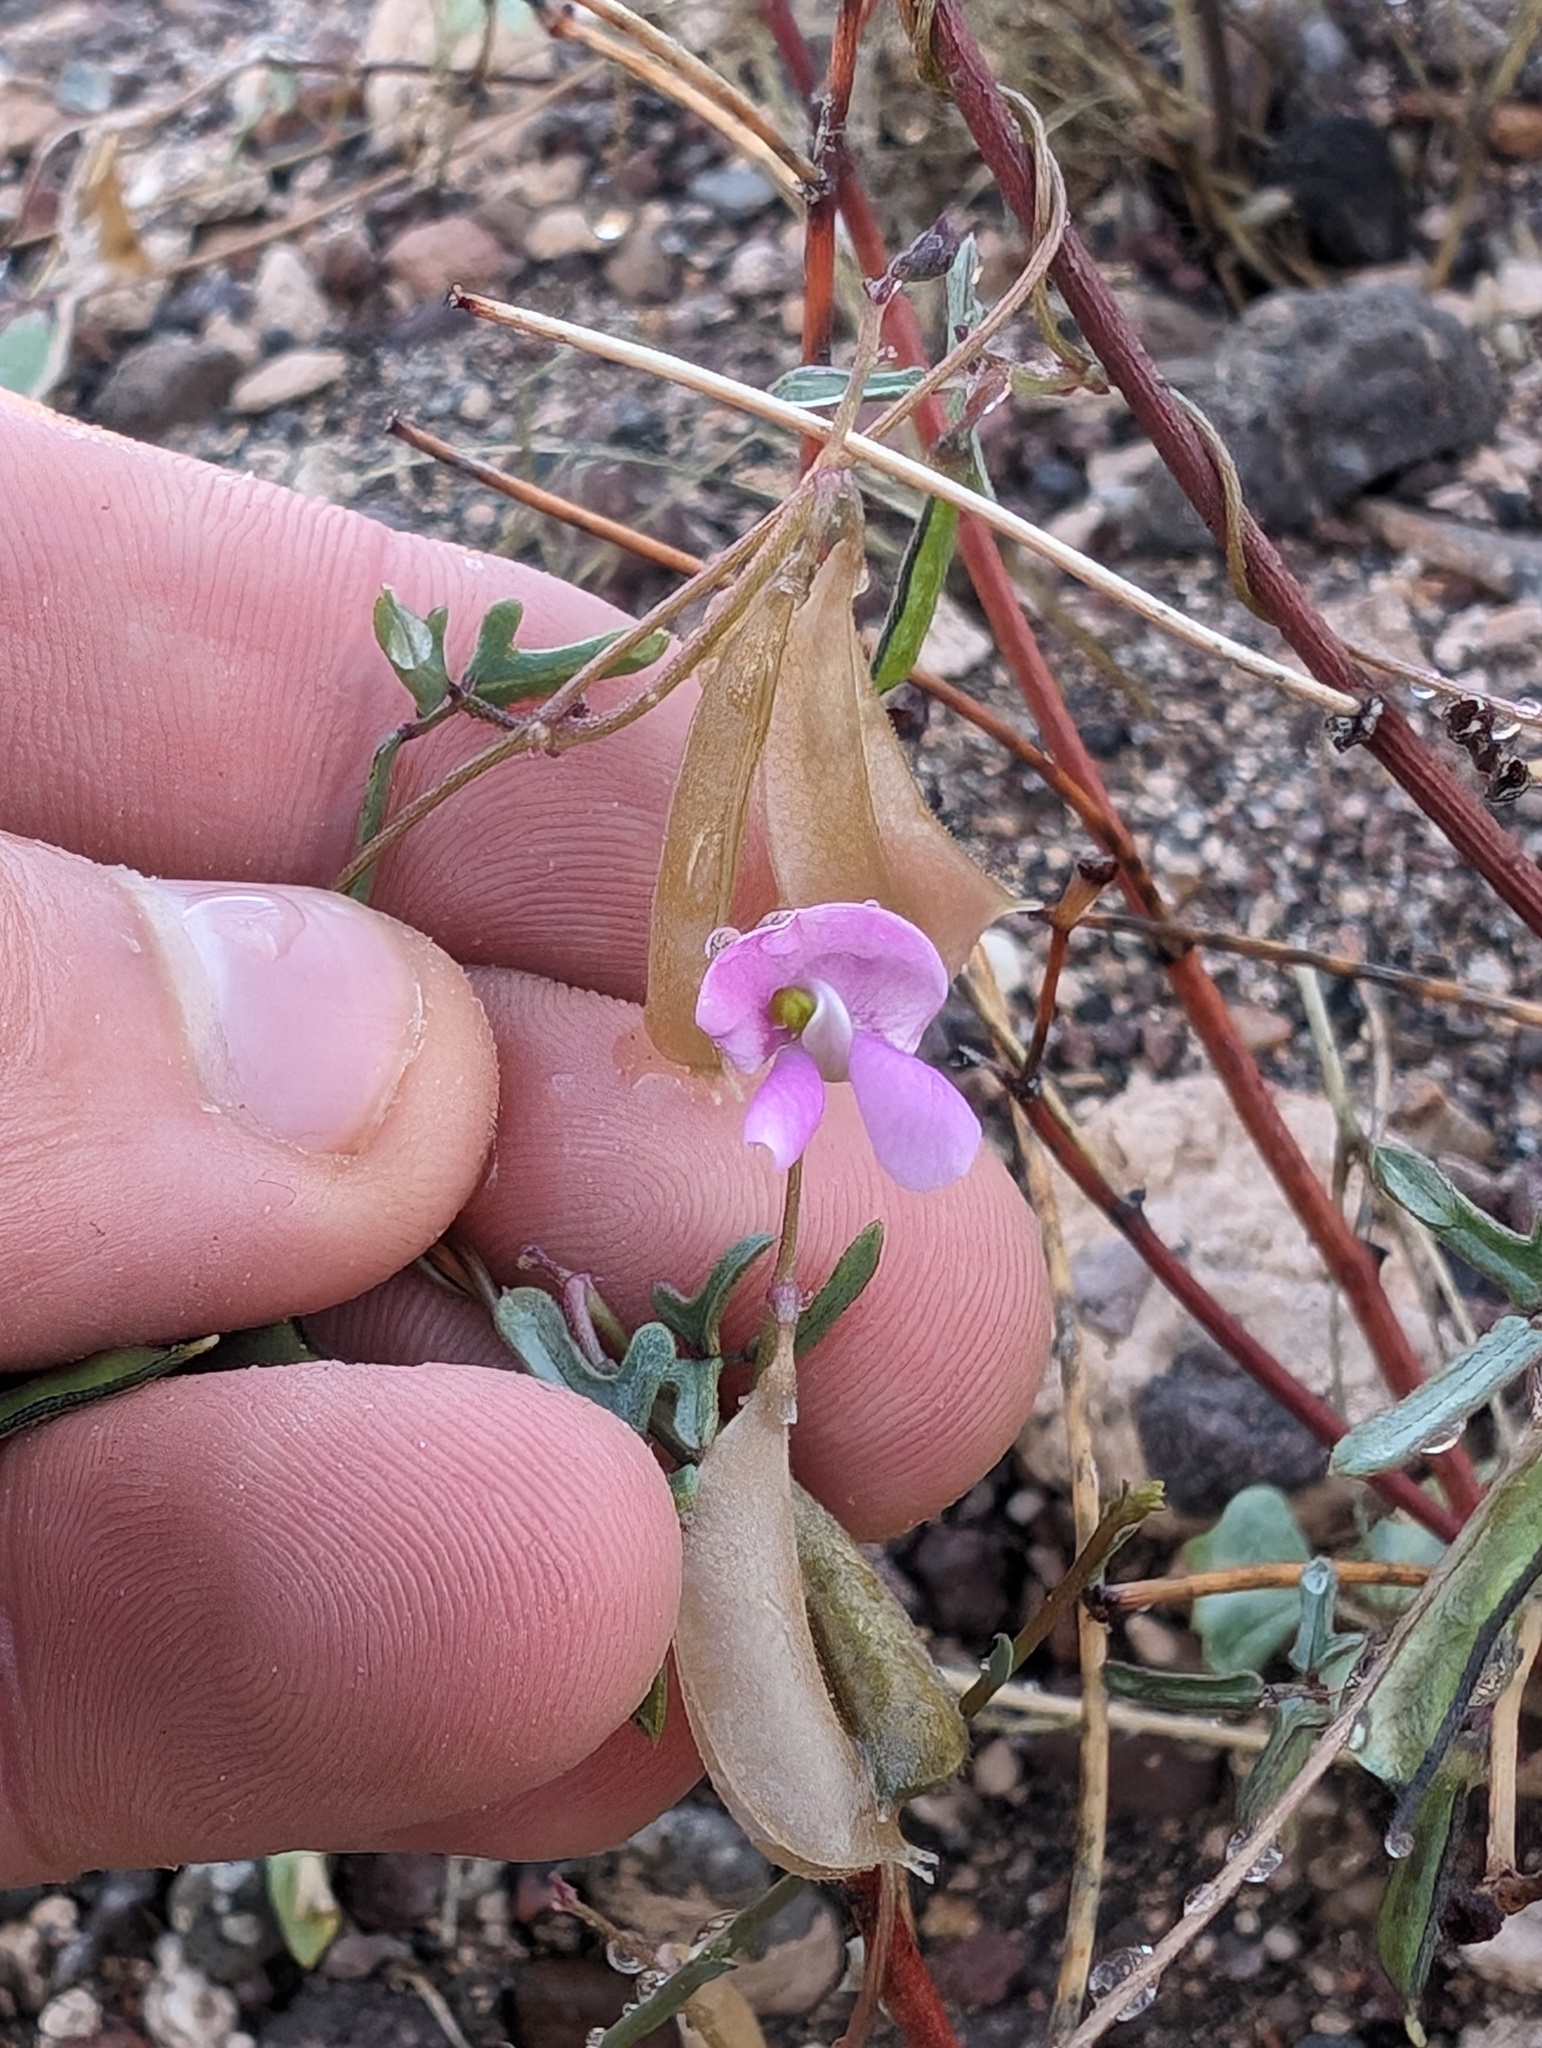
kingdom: Plantae
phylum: Tracheophyta
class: Magnoliopsida
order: Fabales
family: Fabaceae
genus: Phaseolus
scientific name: Phaseolus filiformis
